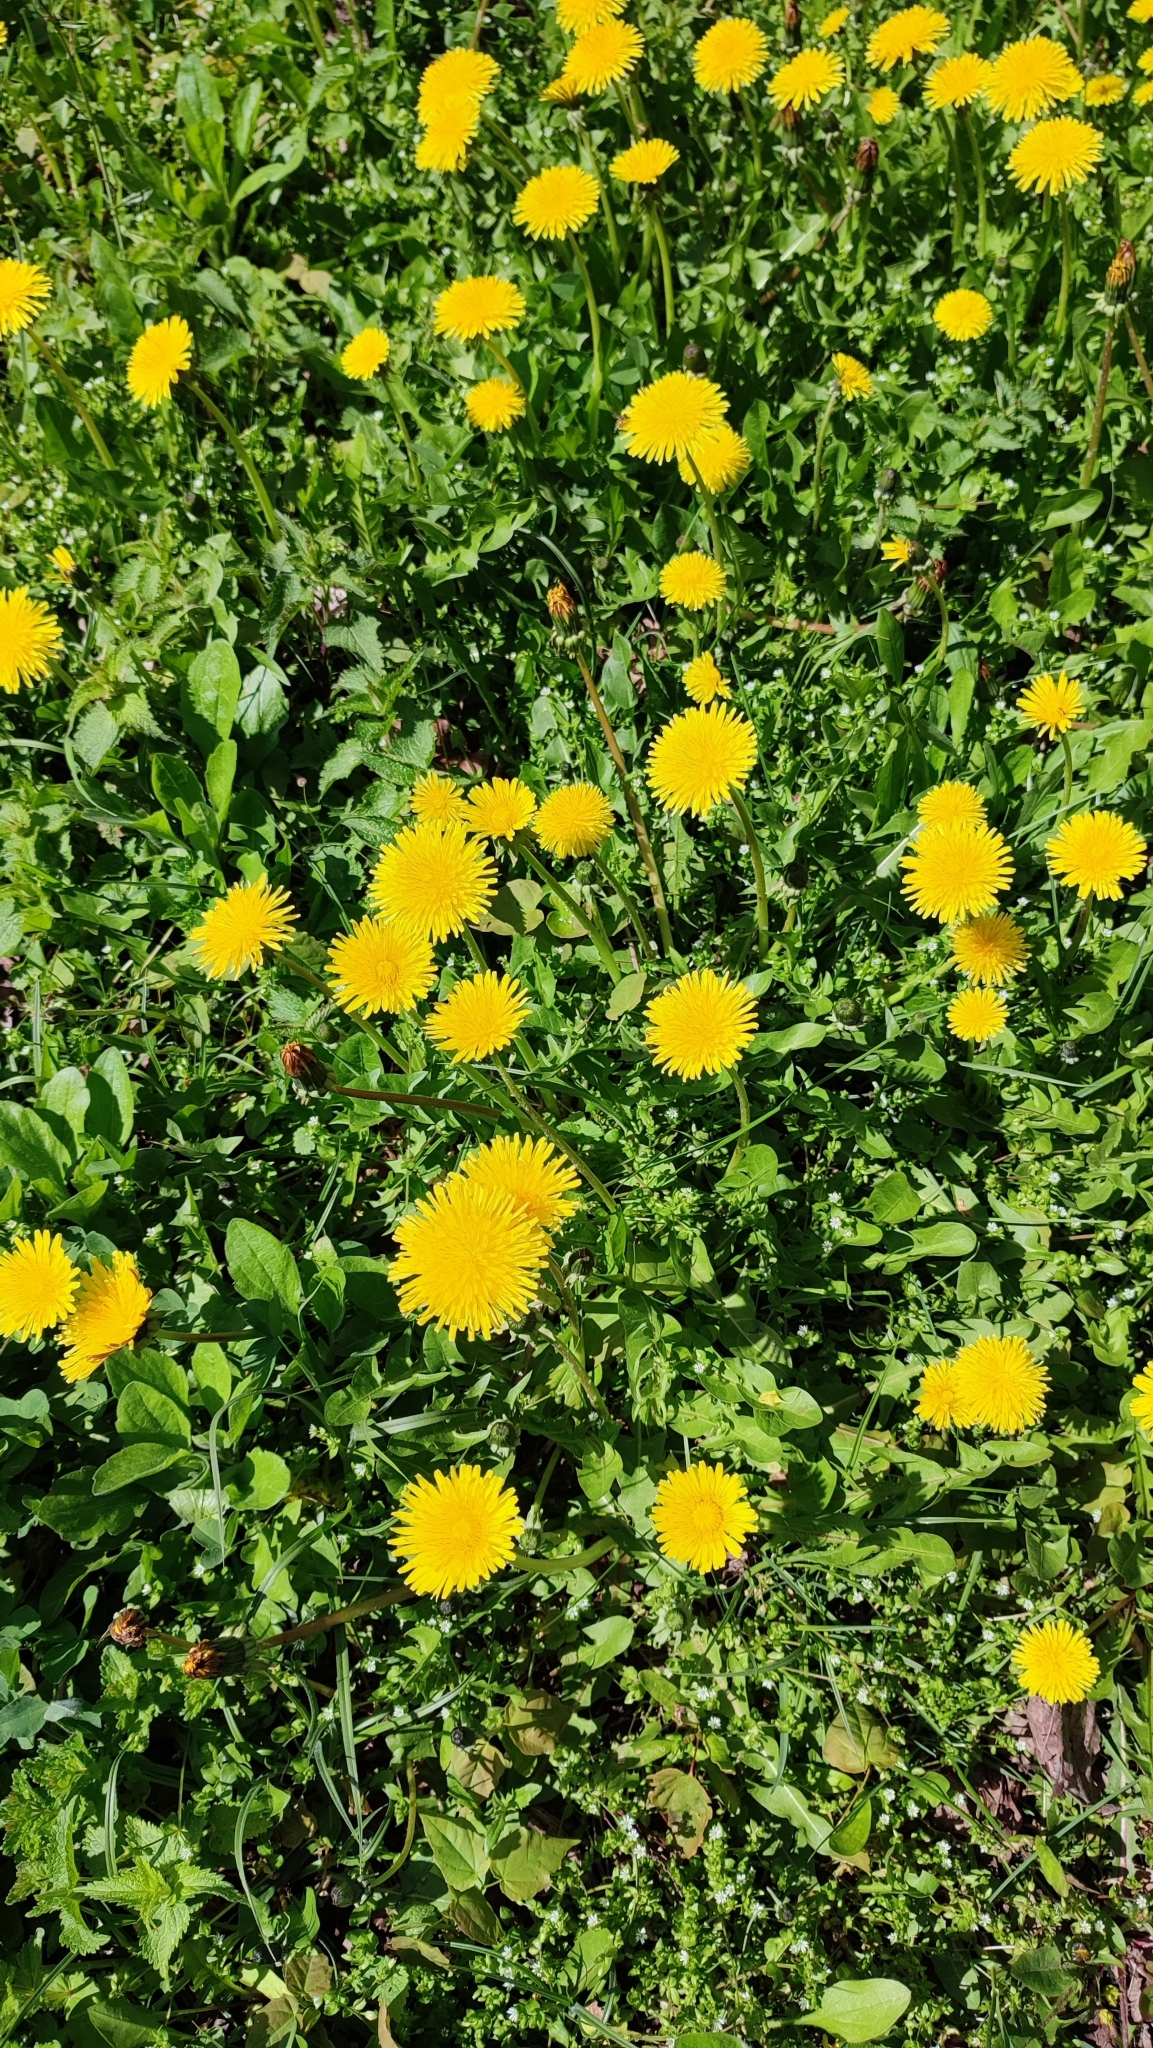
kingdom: Plantae
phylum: Tracheophyta
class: Magnoliopsida
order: Asterales
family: Asteraceae
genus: Taraxacum
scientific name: Taraxacum officinale
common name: Common dandelion
